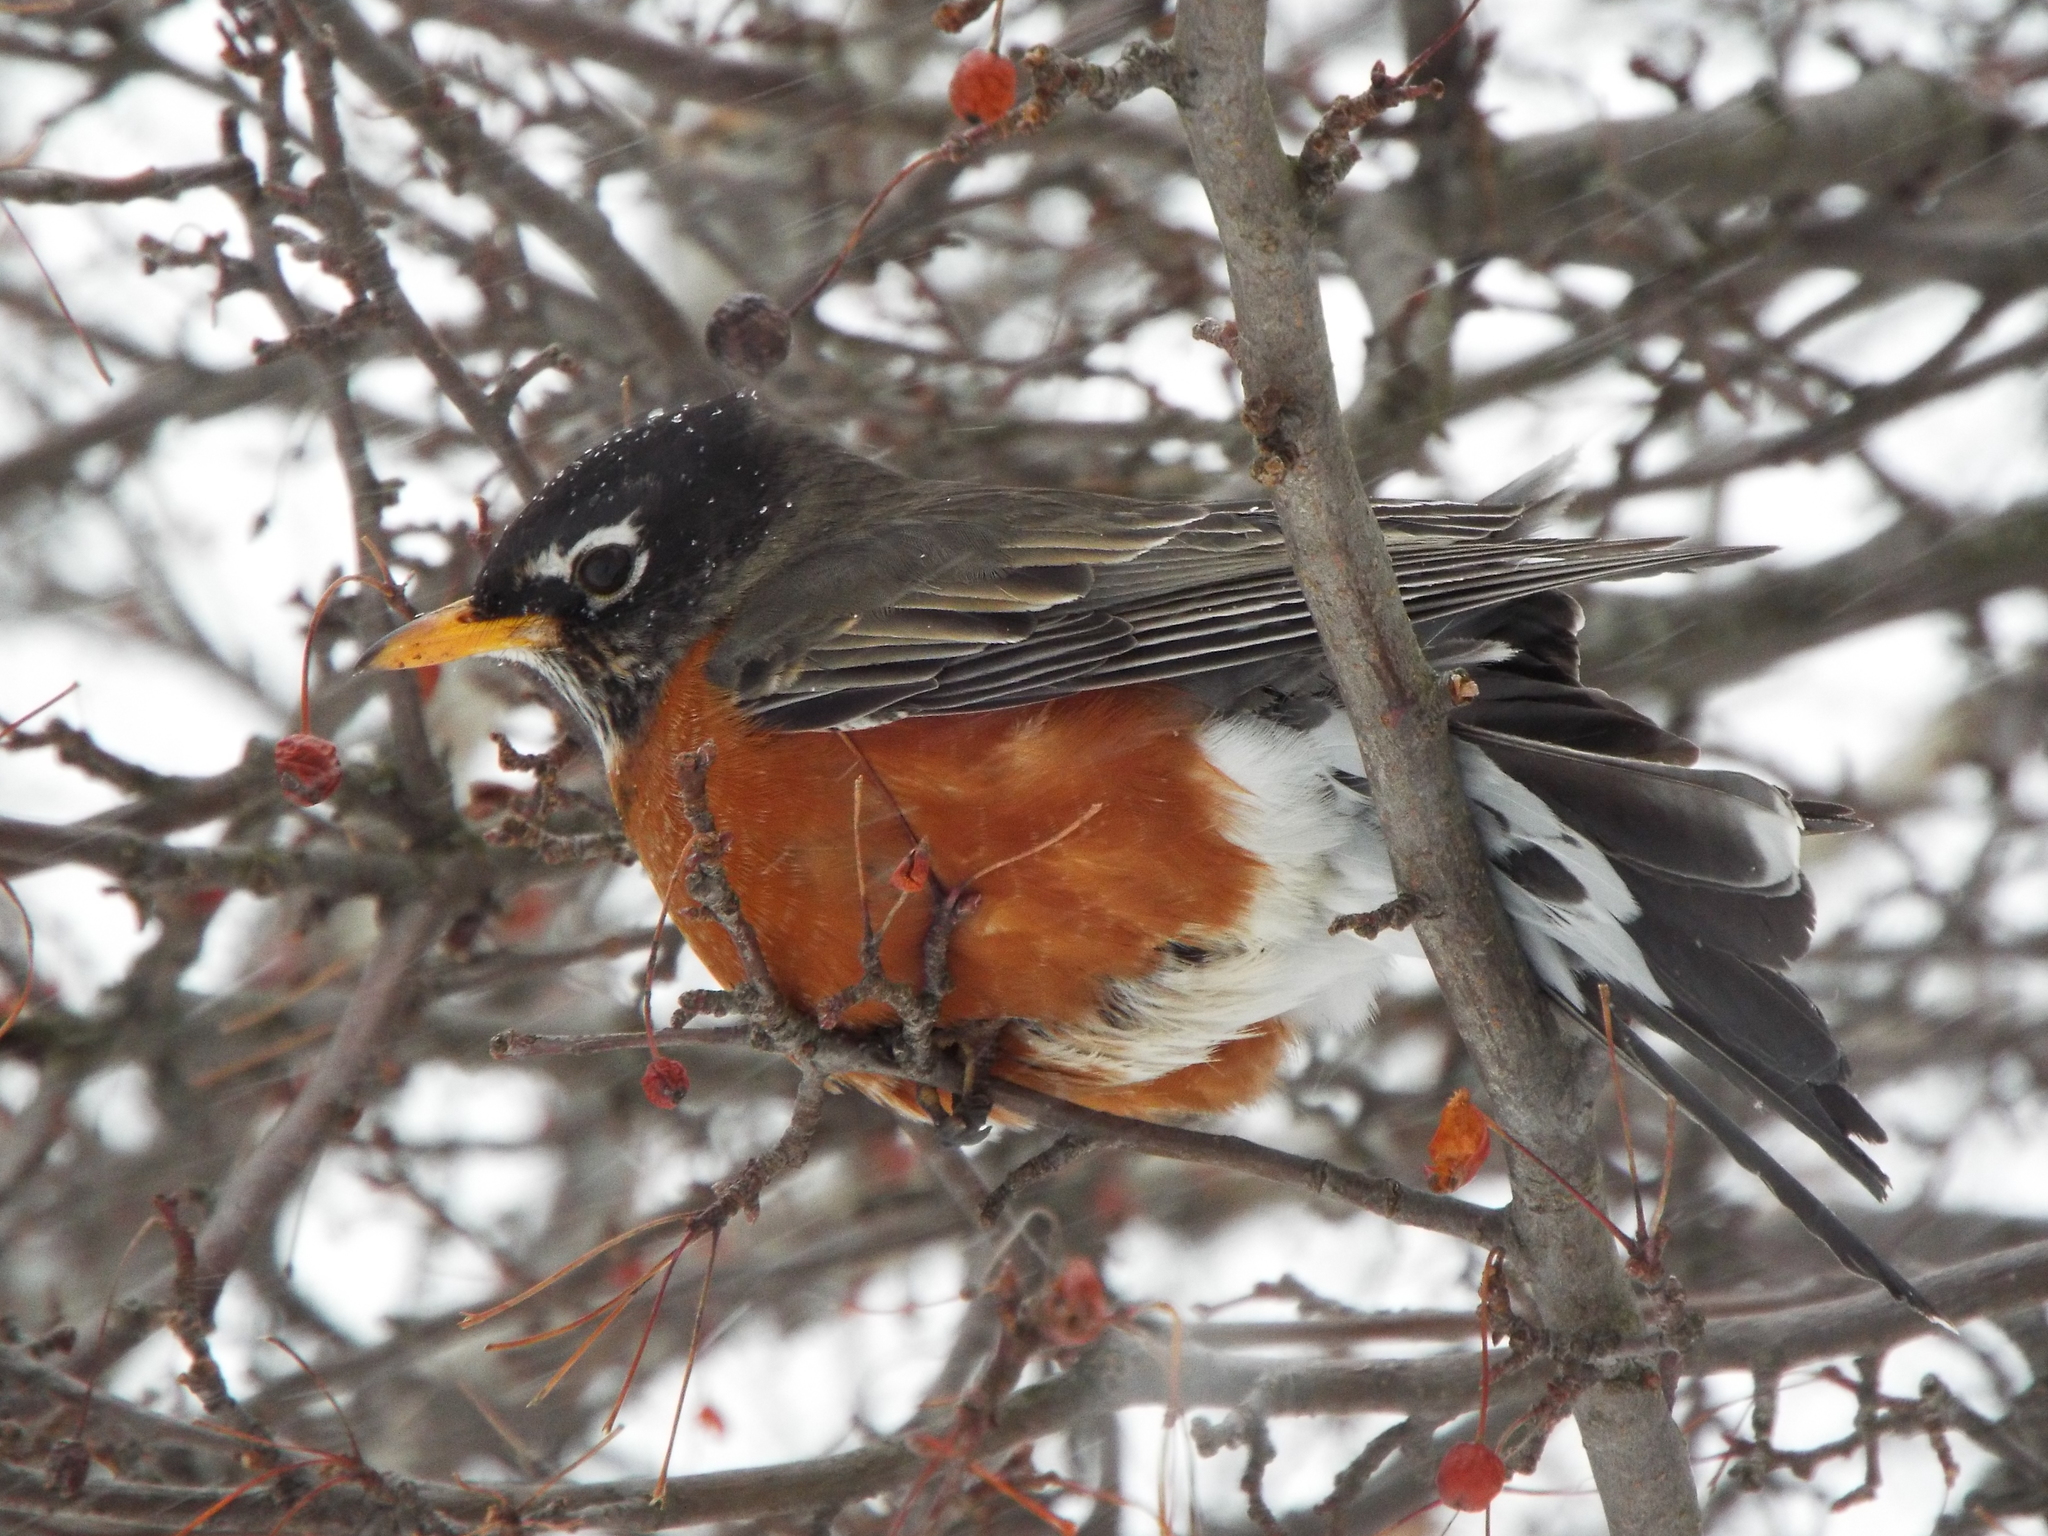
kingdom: Animalia
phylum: Chordata
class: Aves
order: Passeriformes
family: Turdidae
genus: Turdus
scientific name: Turdus migratorius
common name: American robin
